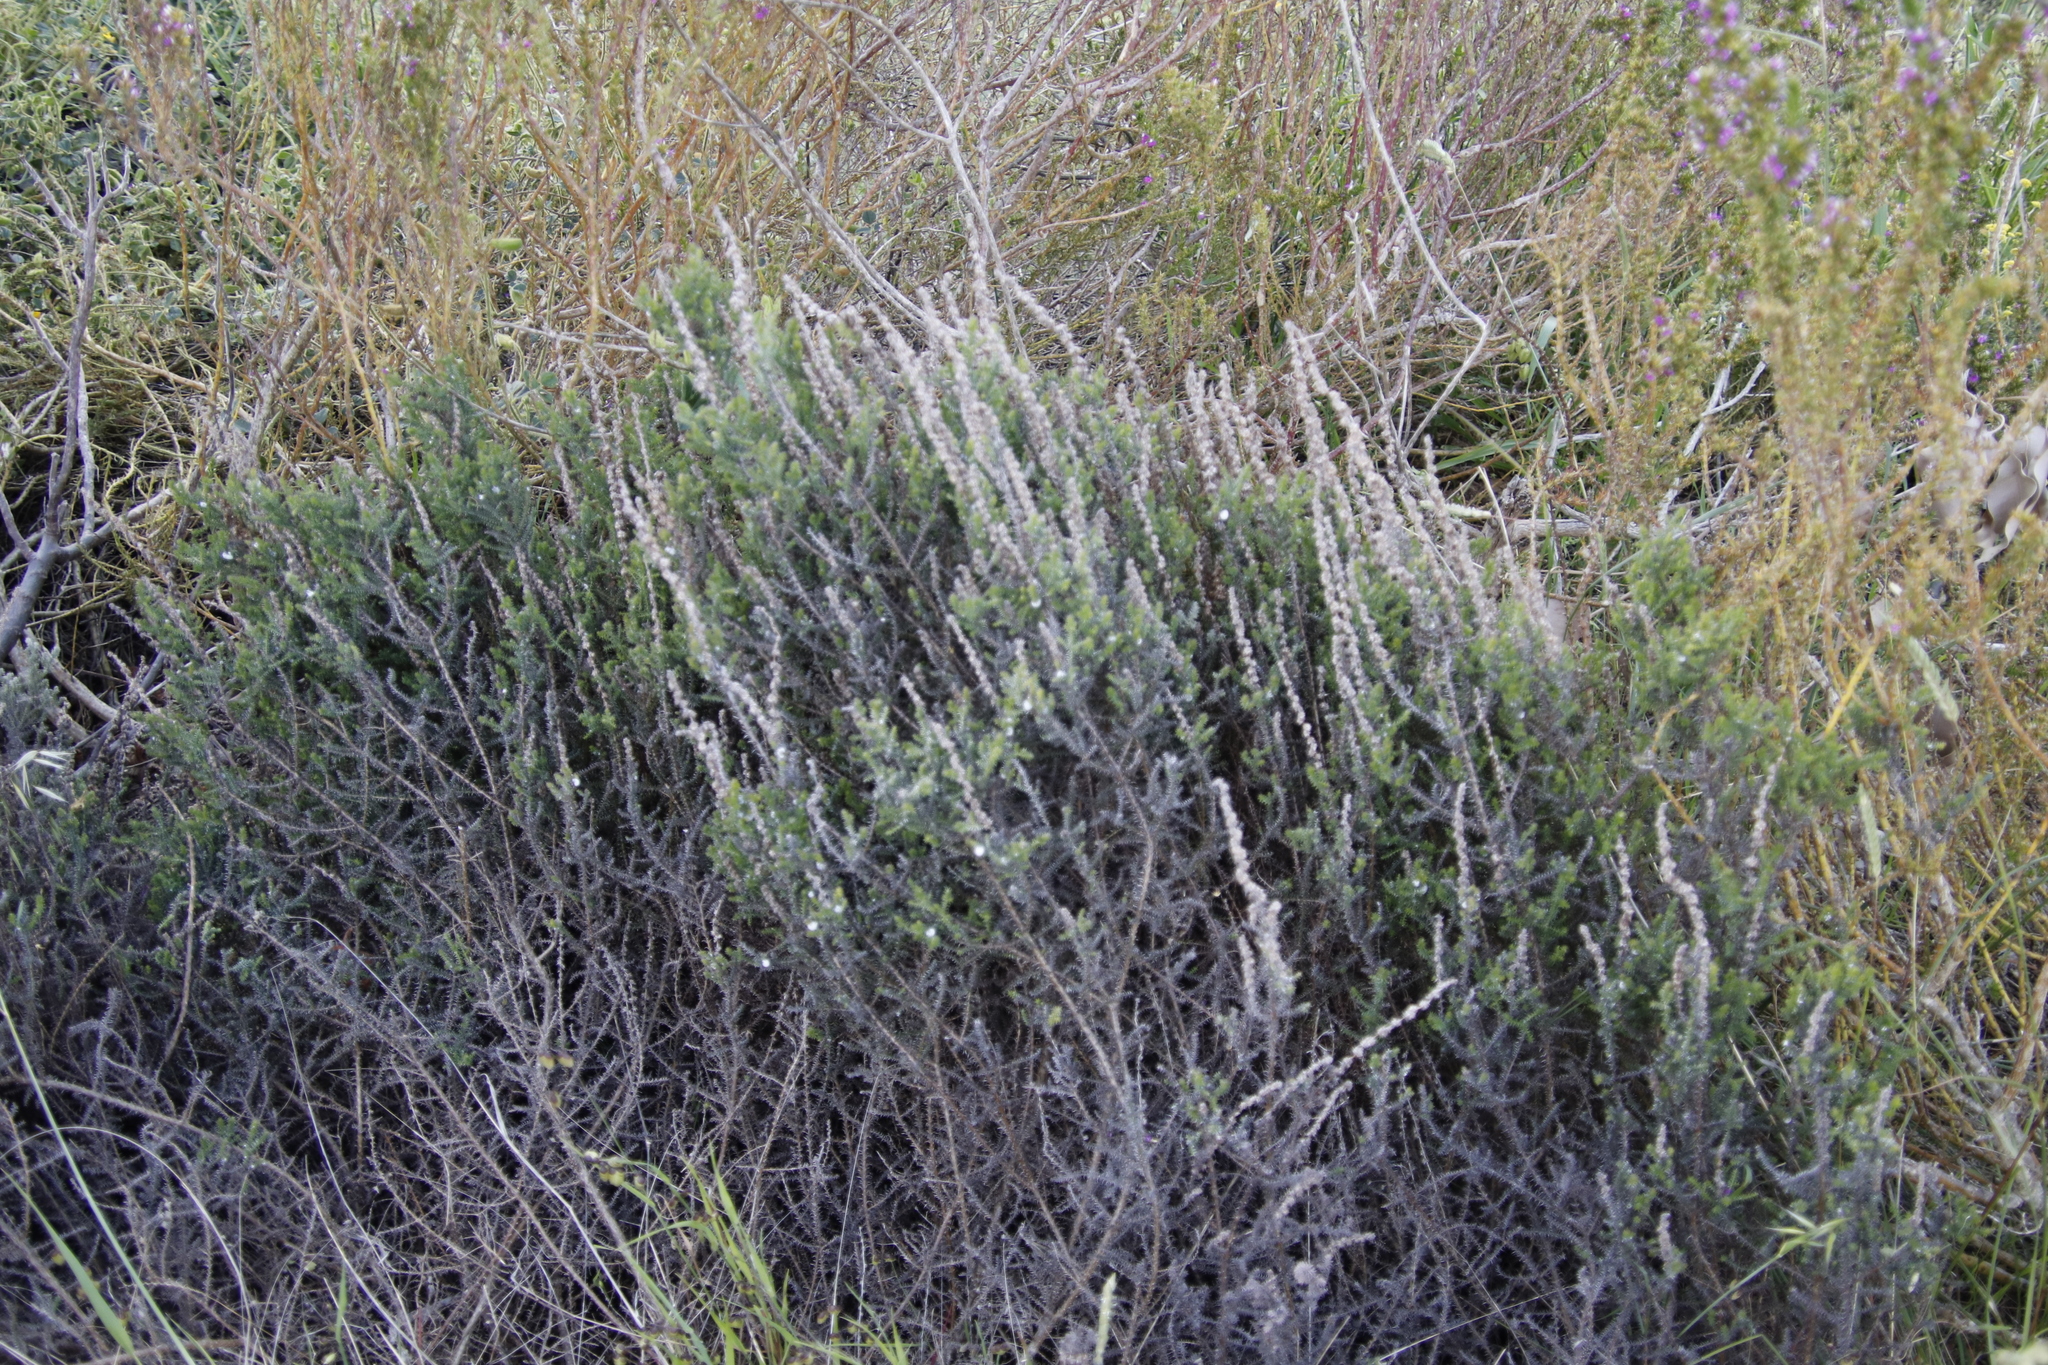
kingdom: Plantae
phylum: Tracheophyta
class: Magnoliopsida
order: Asterales
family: Asteraceae
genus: Seriphium
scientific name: Seriphium cinereum
